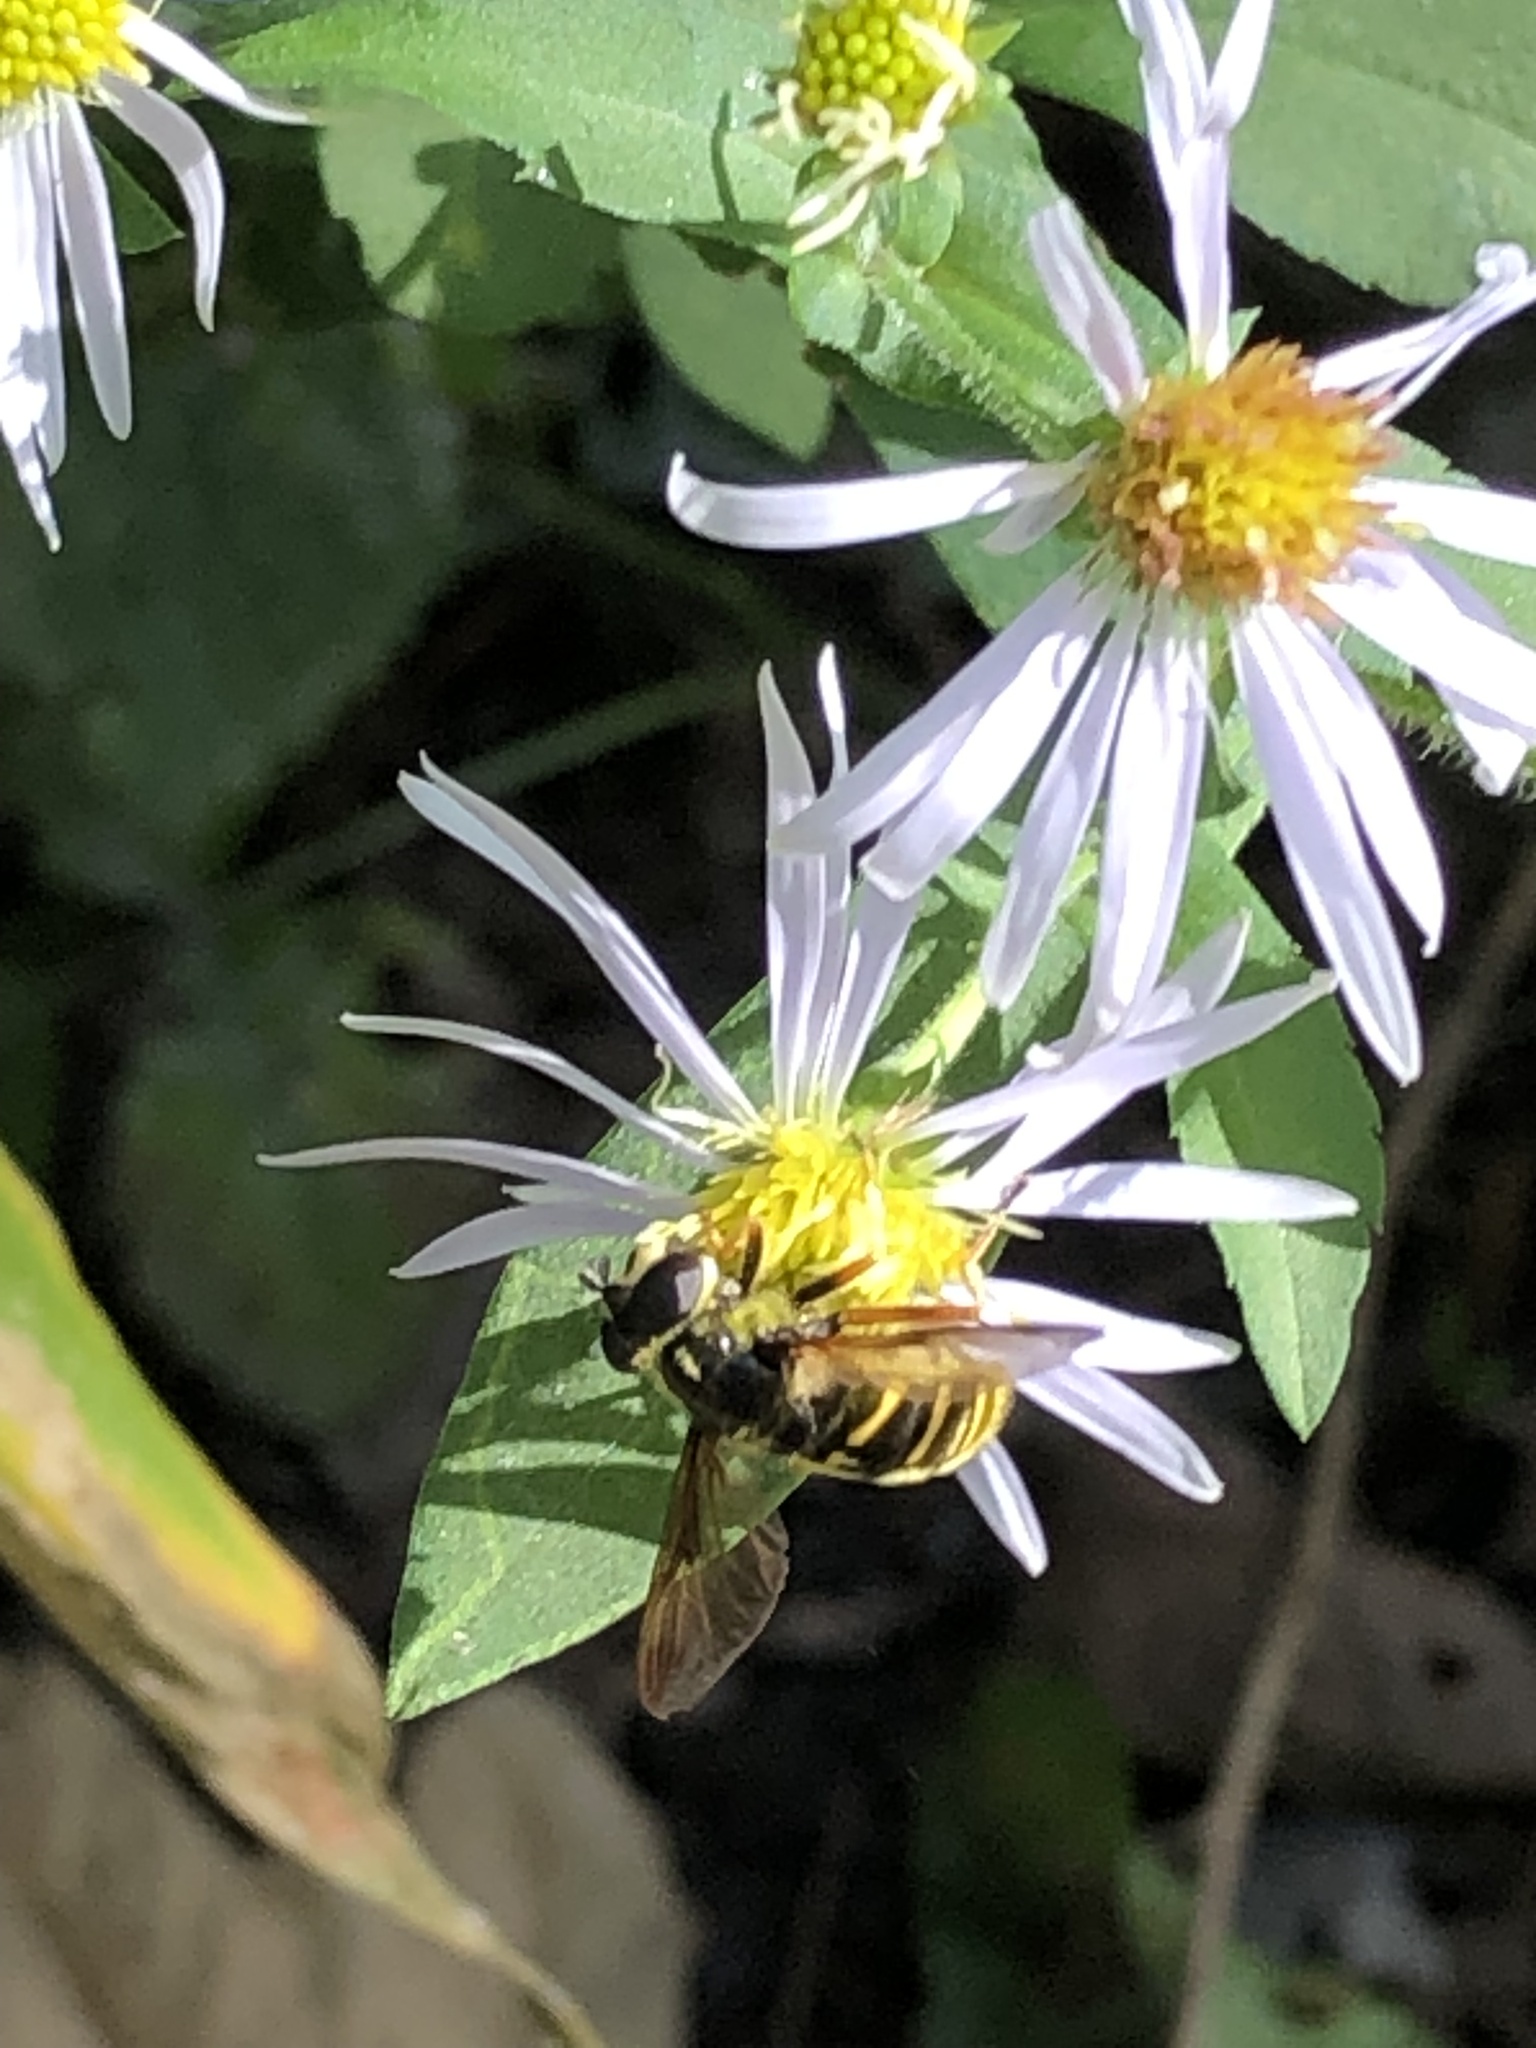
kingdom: Animalia
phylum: Arthropoda
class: Insecta
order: Diptera
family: Syrphidae
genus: Sericomyia
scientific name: Sericomyia chrysotoxoides
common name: Oblique-banded pond fly
